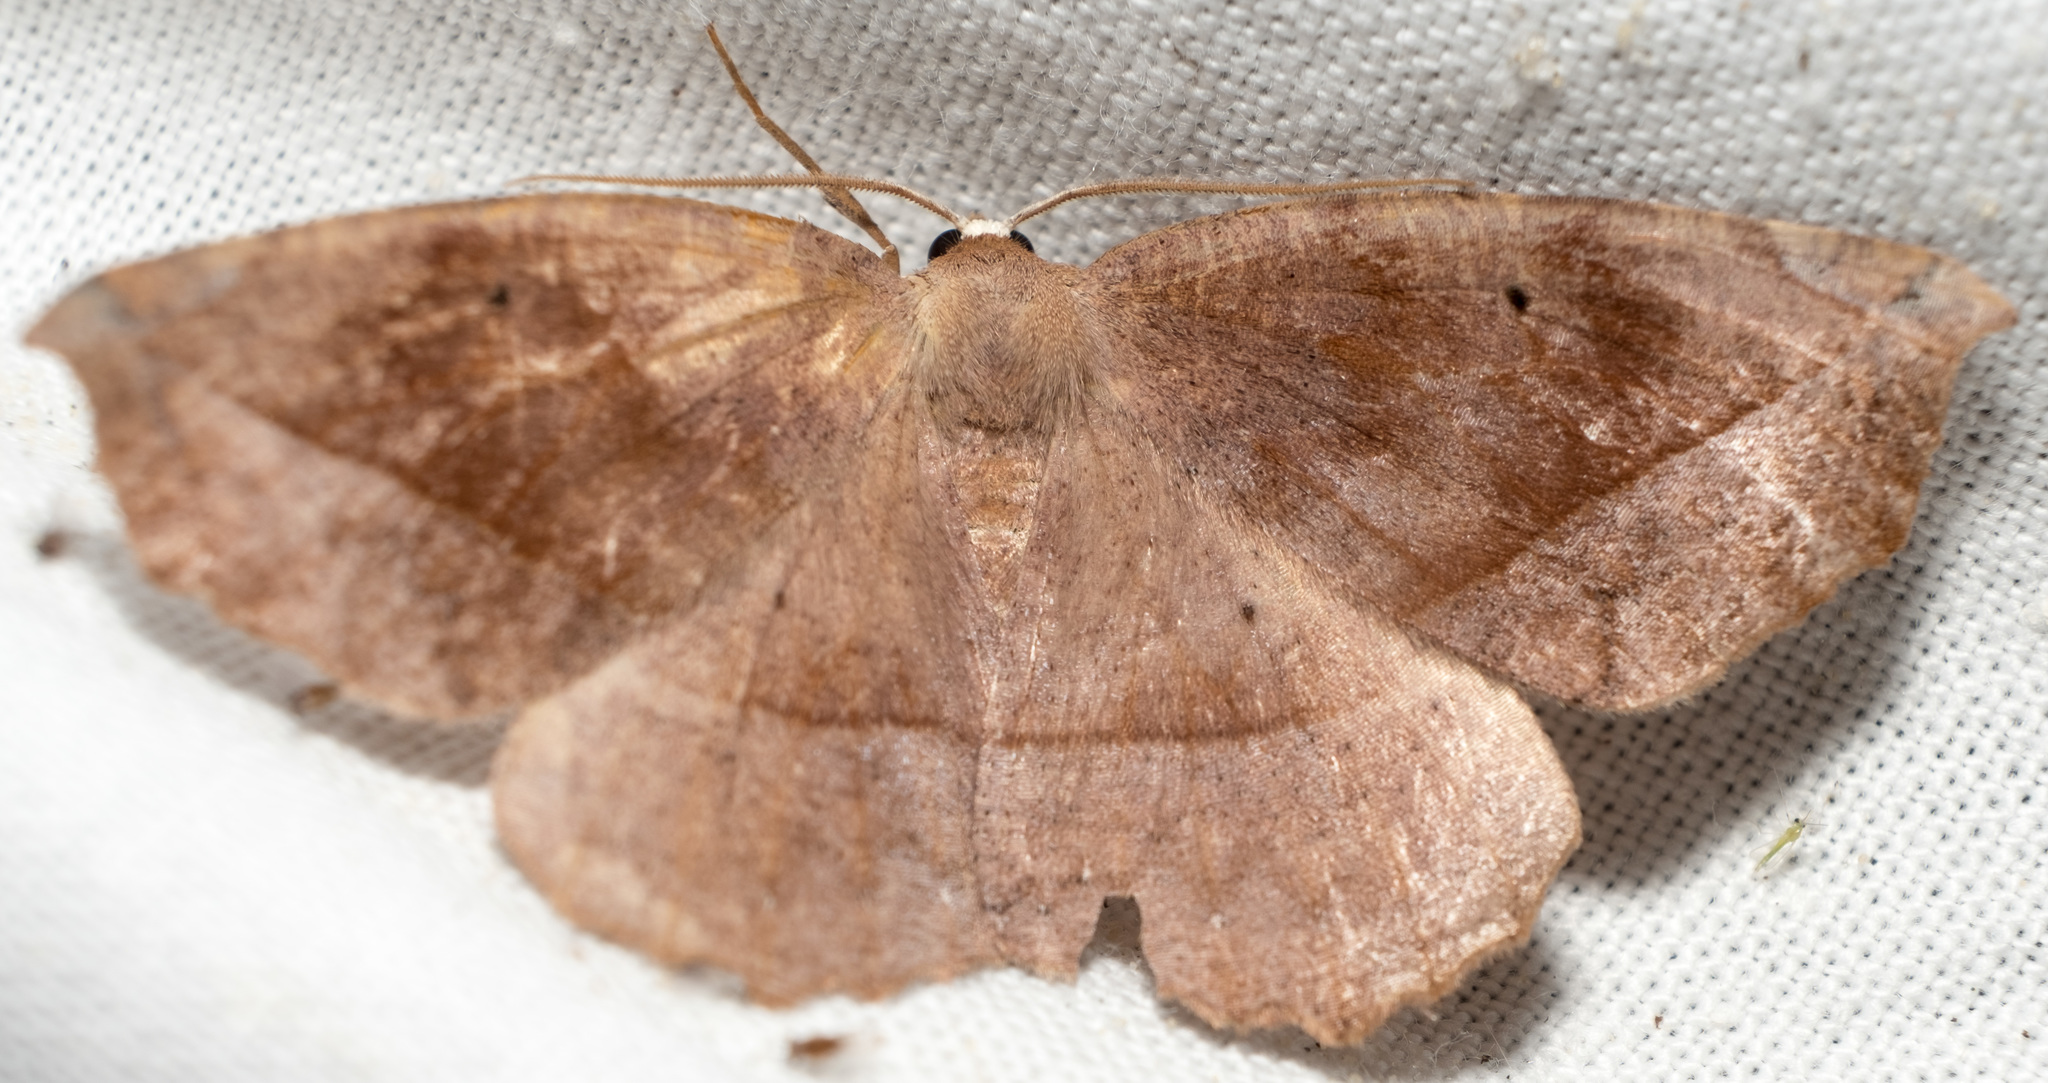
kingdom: Animalia
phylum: Arthropoda
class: Insecta
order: Lepidoptera
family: Geometridae
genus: Eutrapela
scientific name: Eutrapela clemataria
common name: Curved-toothed geometer
